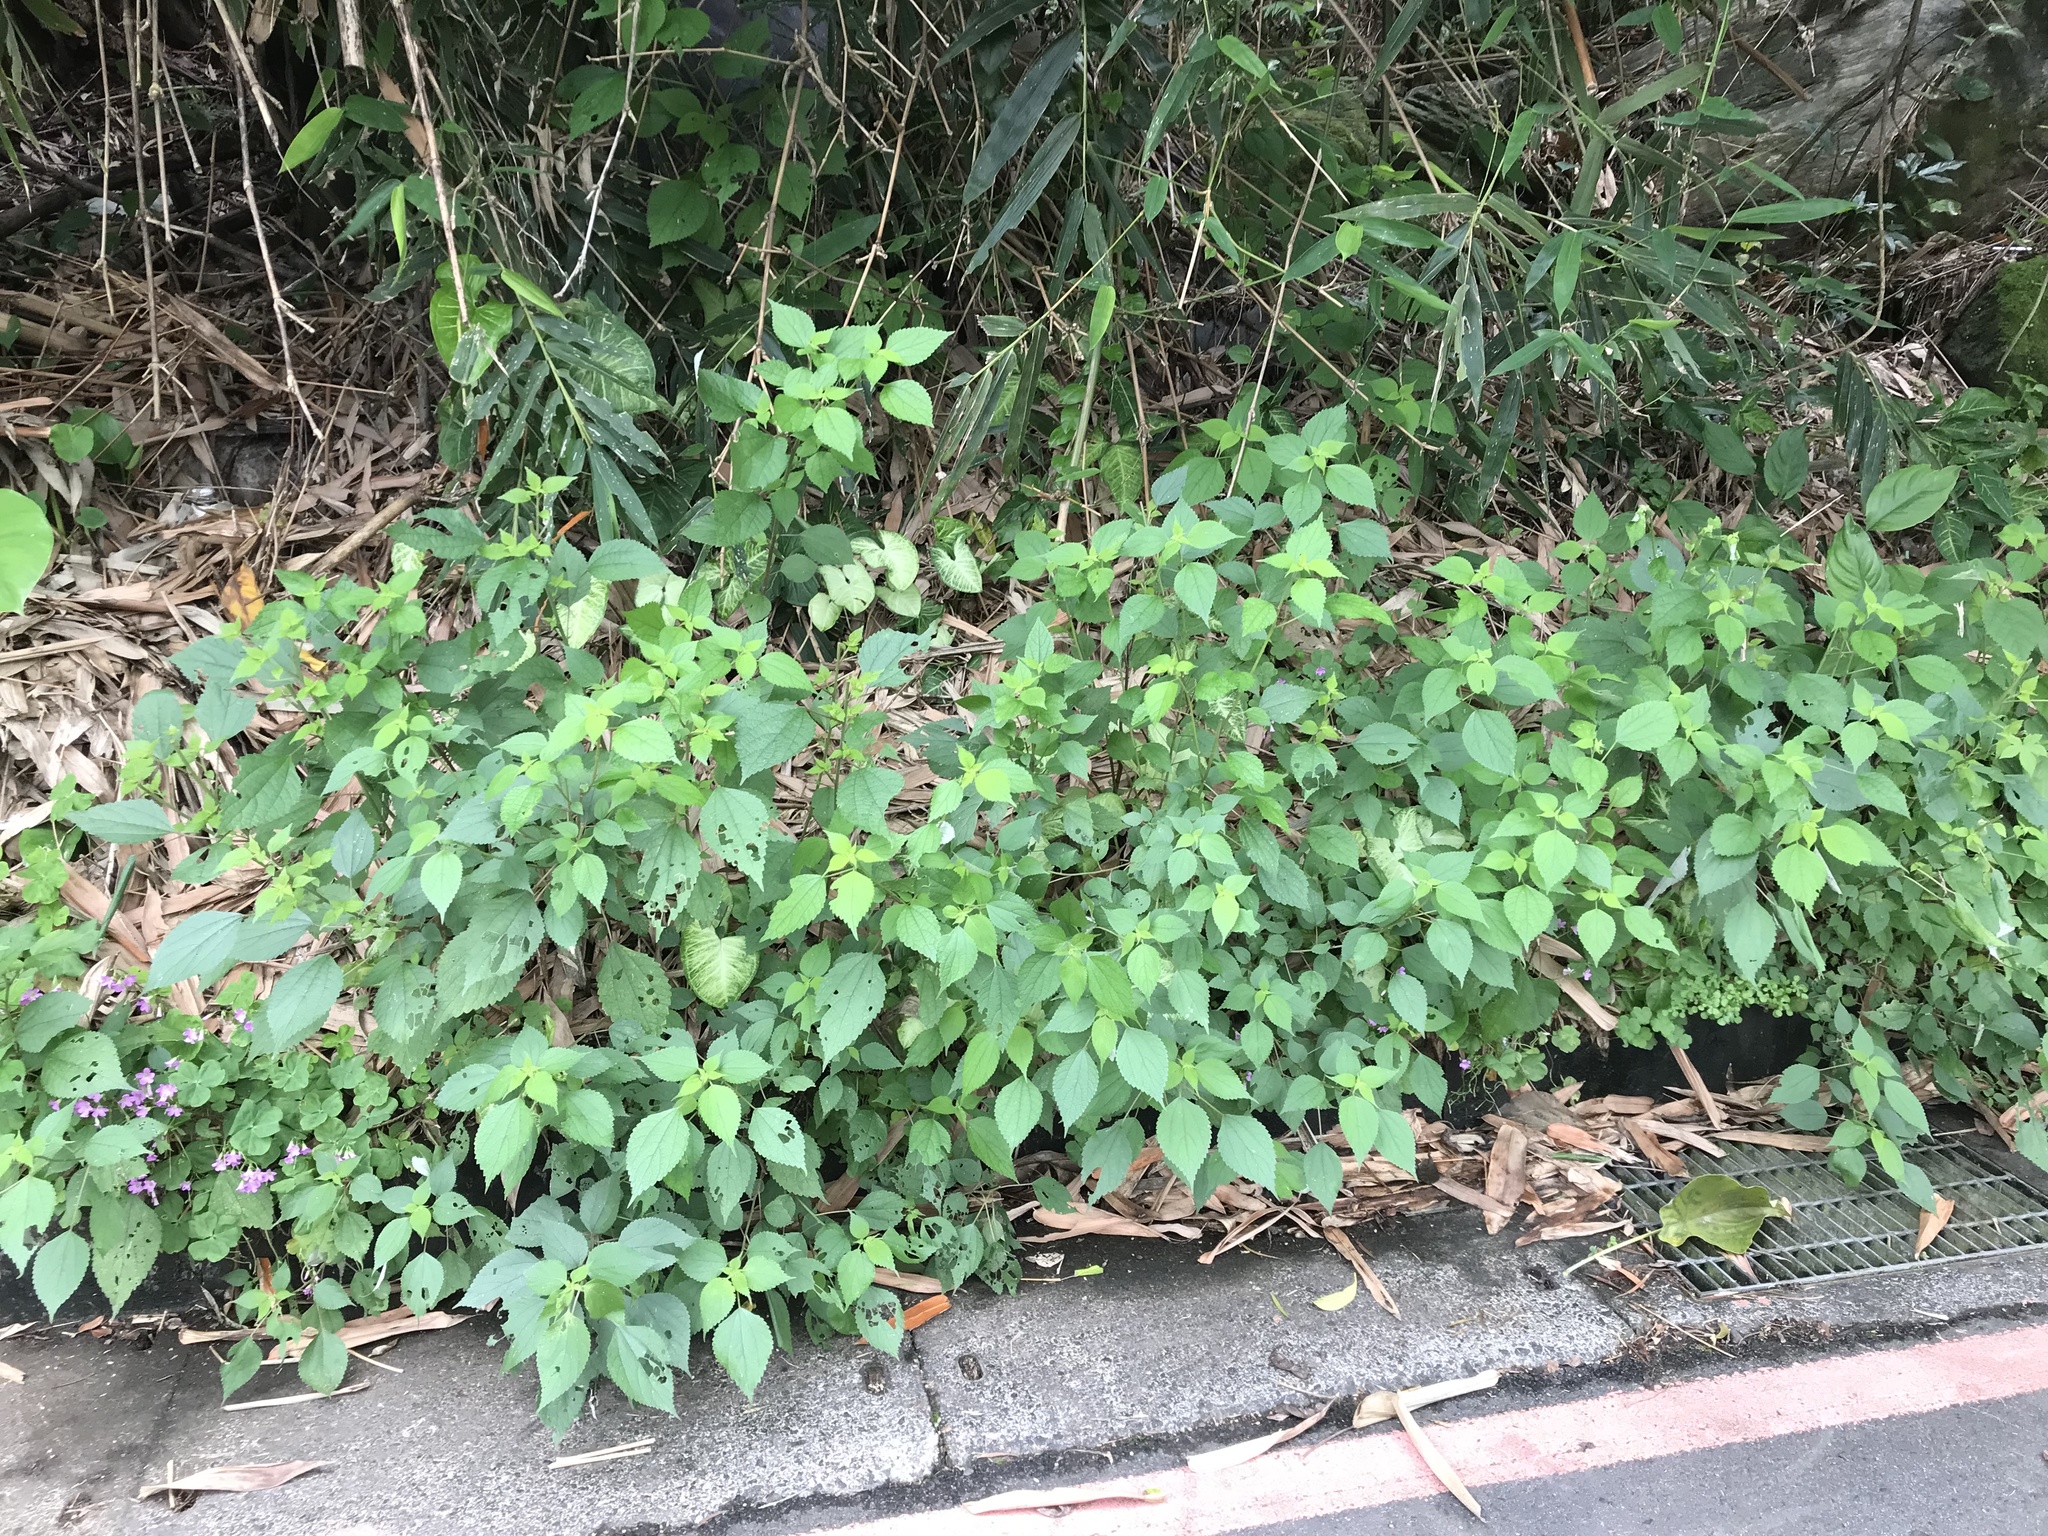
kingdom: Plantae
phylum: Tracheophyta
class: Magnoliopsida
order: Rosales
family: Urticaceae
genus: Boehmeria
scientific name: Boehmeria nivea
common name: Ramie chinese grass
